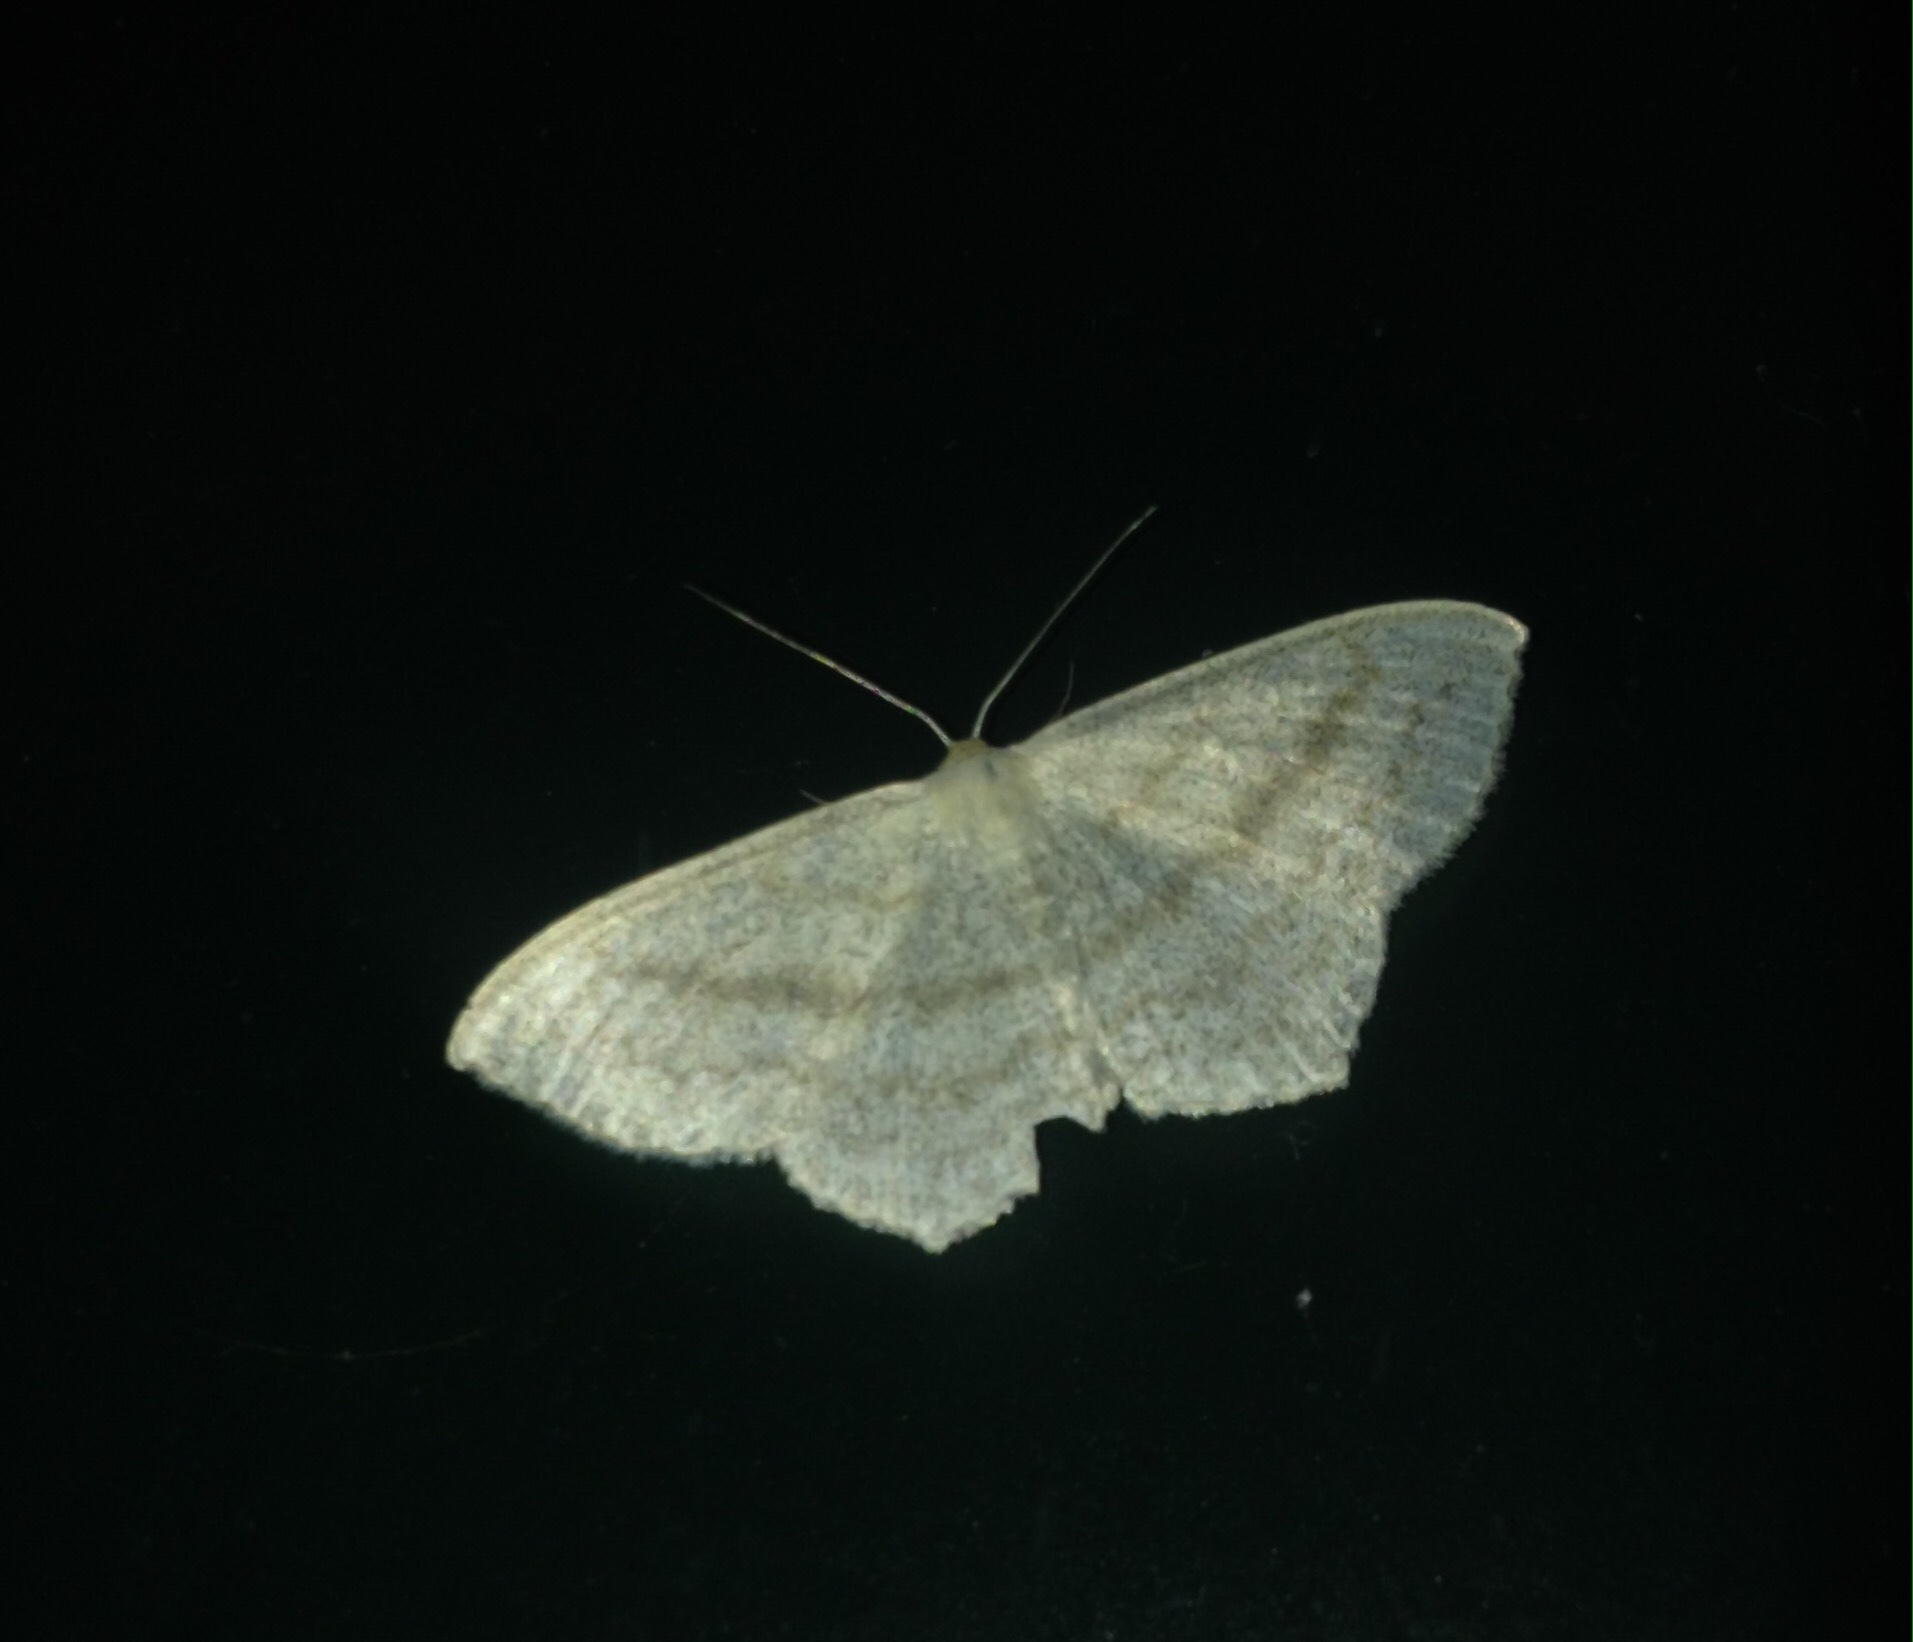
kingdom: Animalia
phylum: Arthropoda
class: Insecta
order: Lepidoptera
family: Geometridae
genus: Scopula
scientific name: Scopula nigropunctata
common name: Sub-angled wave
